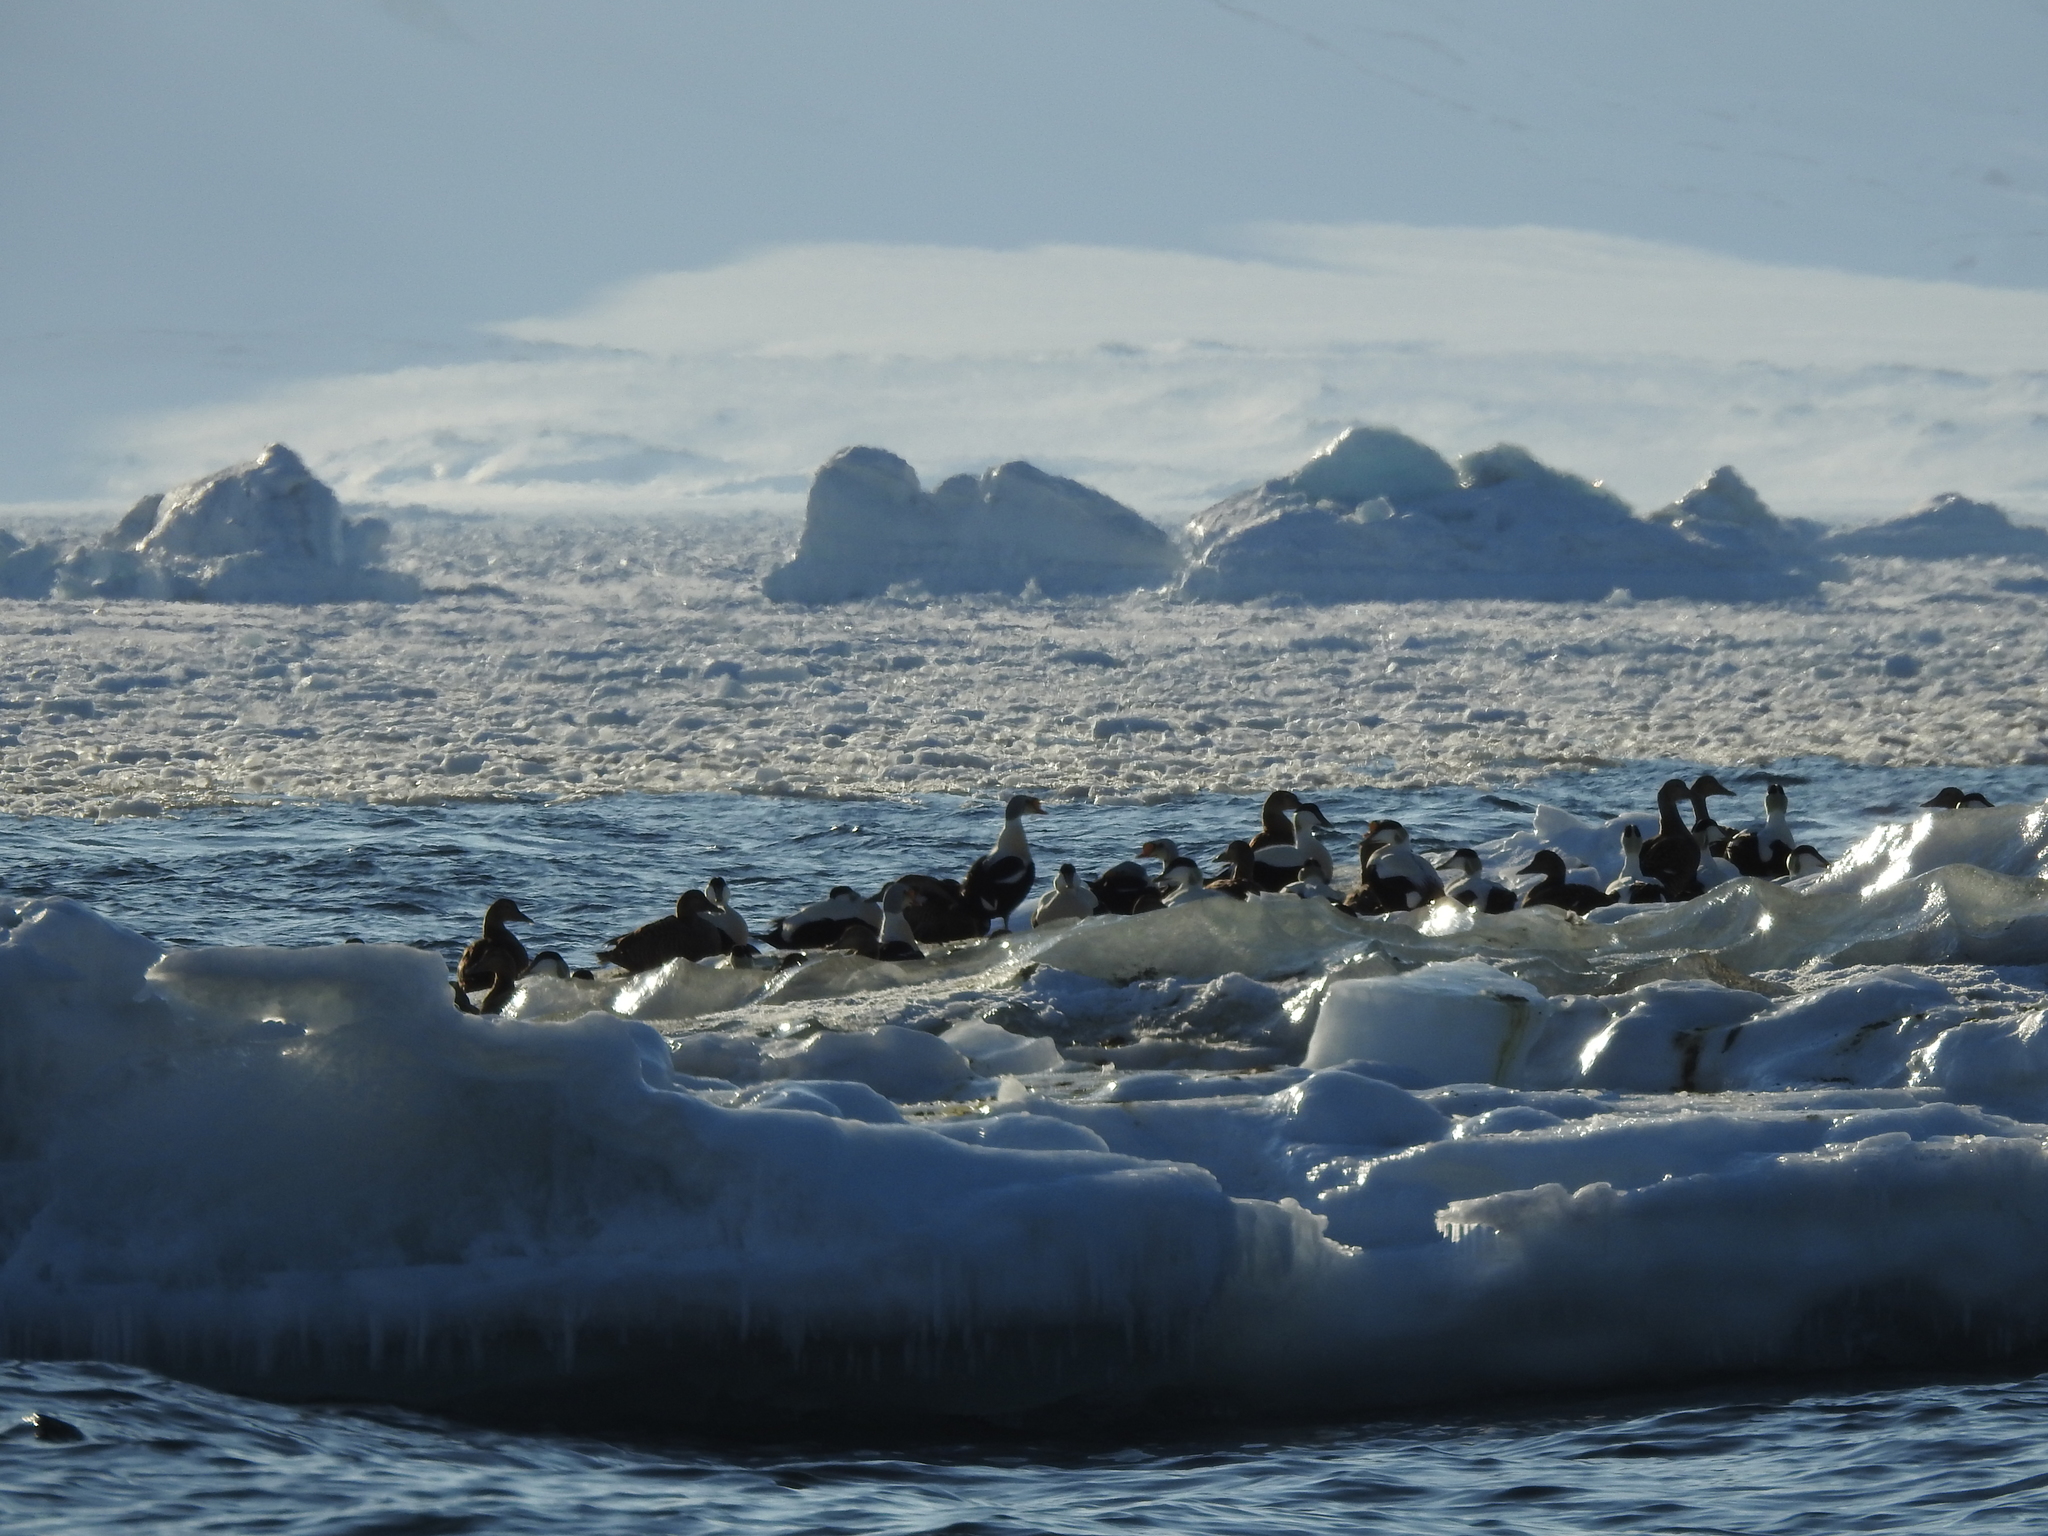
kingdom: Animalia
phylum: Chordata
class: Aves
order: Anseriformes
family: Anatidae
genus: Somateria
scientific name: Somateria mollissima
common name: Common eider
